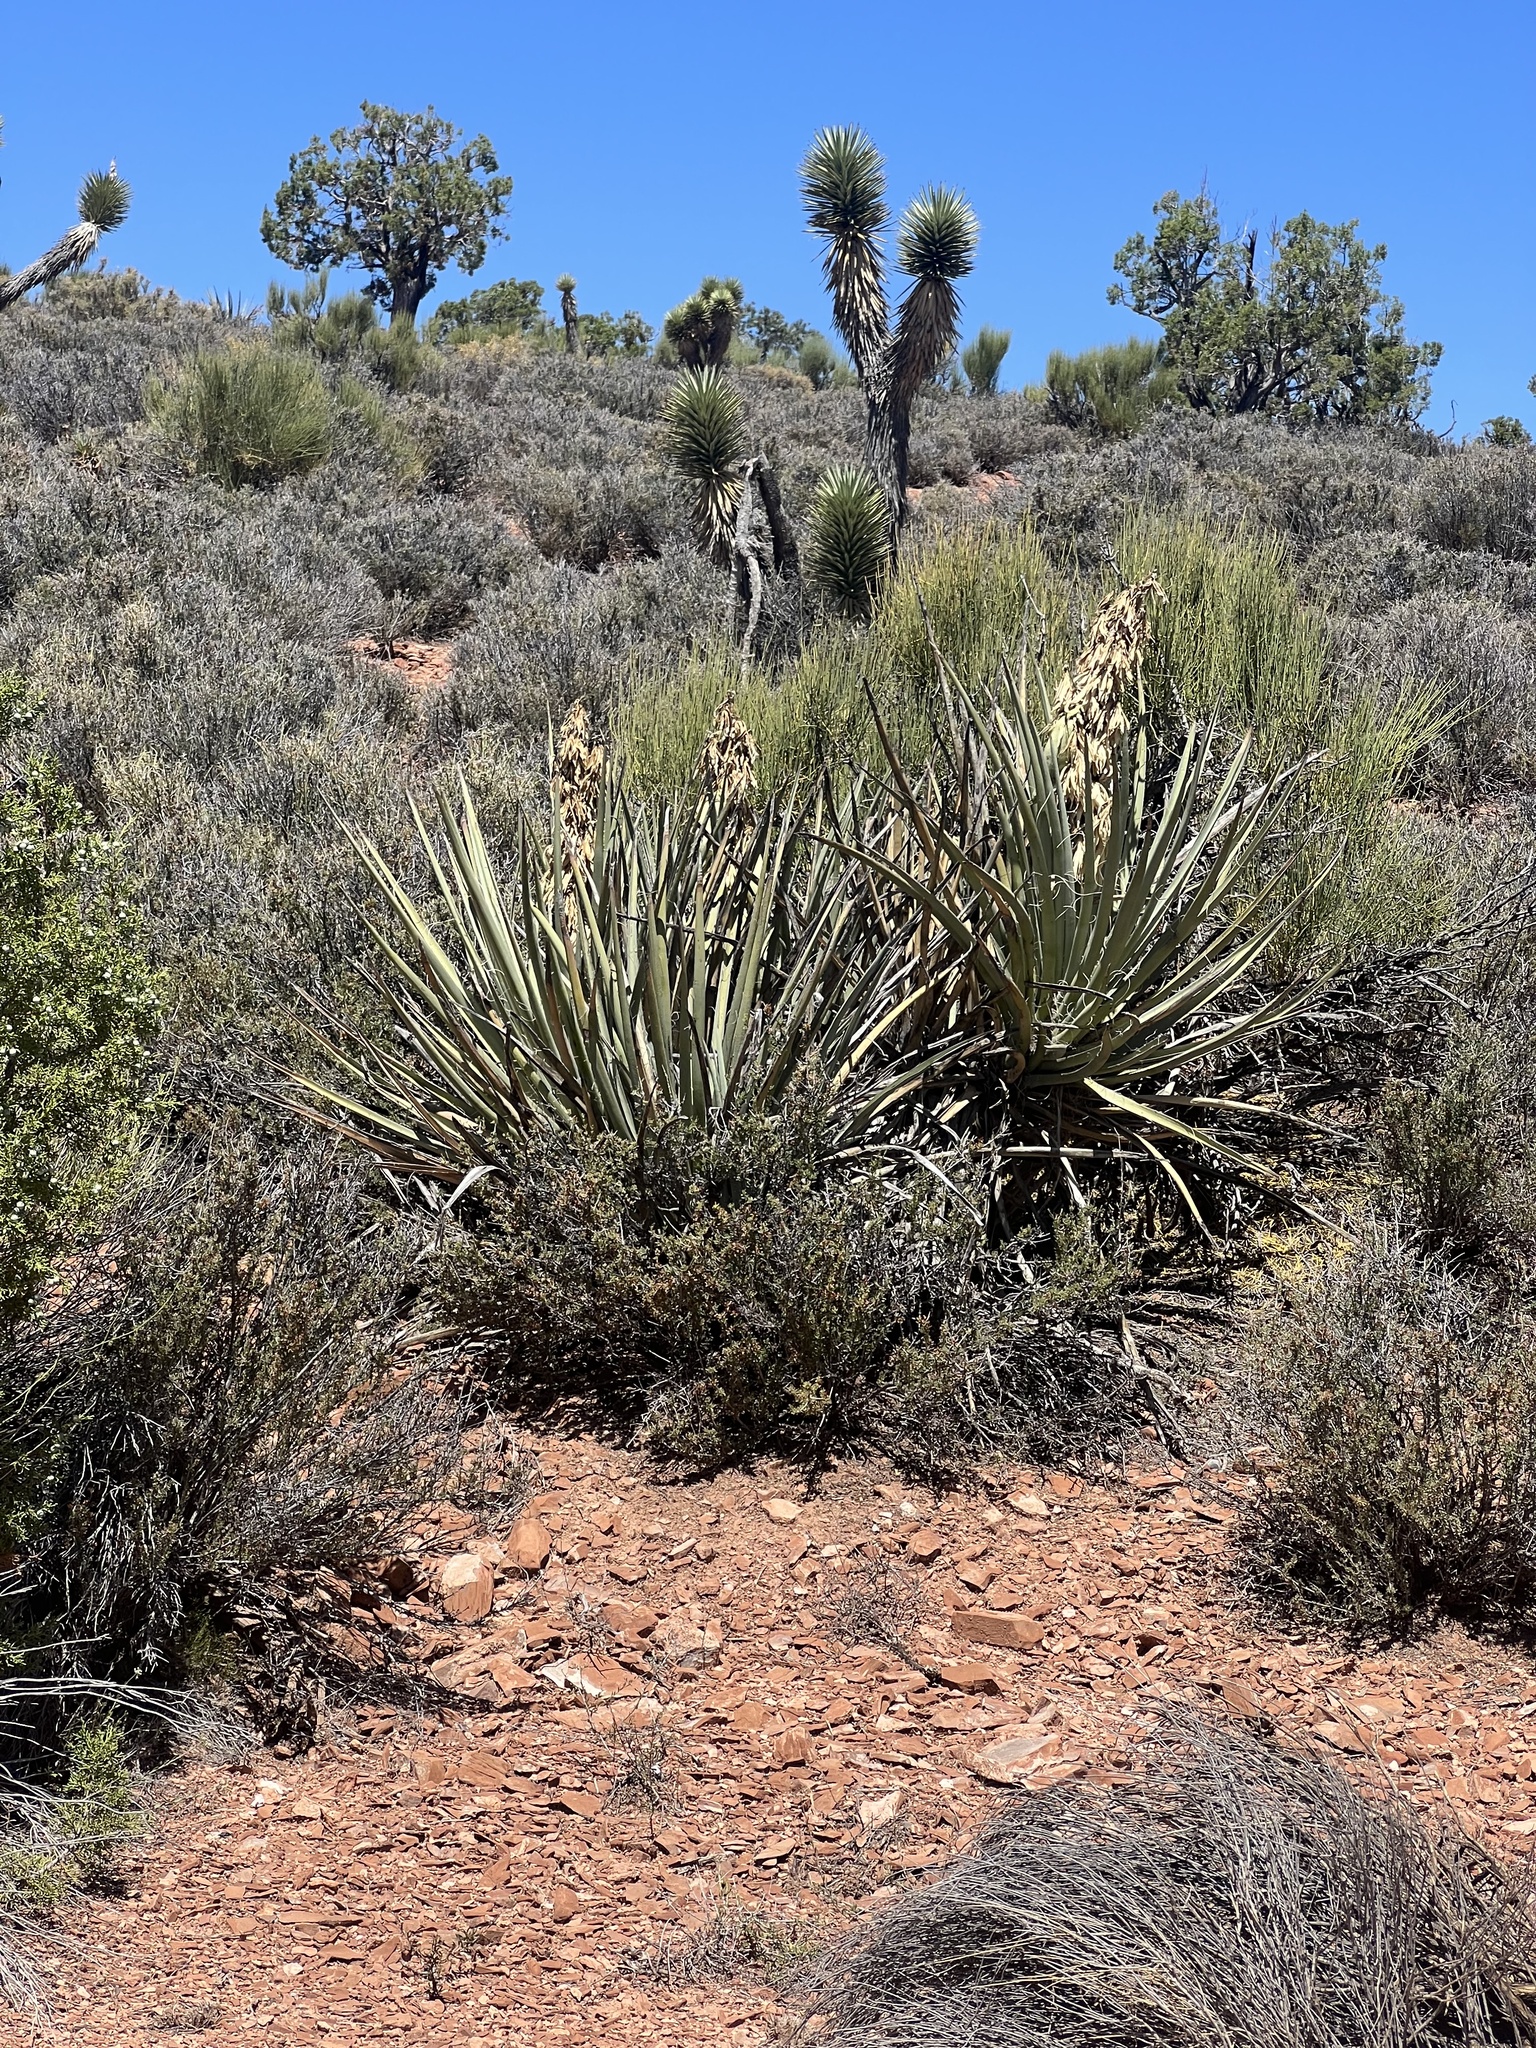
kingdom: Plantae
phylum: Tracheophyta
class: Liliopsida
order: Asparagales
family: Asparagaceae
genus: Yucca
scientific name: Yucca baccata
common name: Banana yucca
